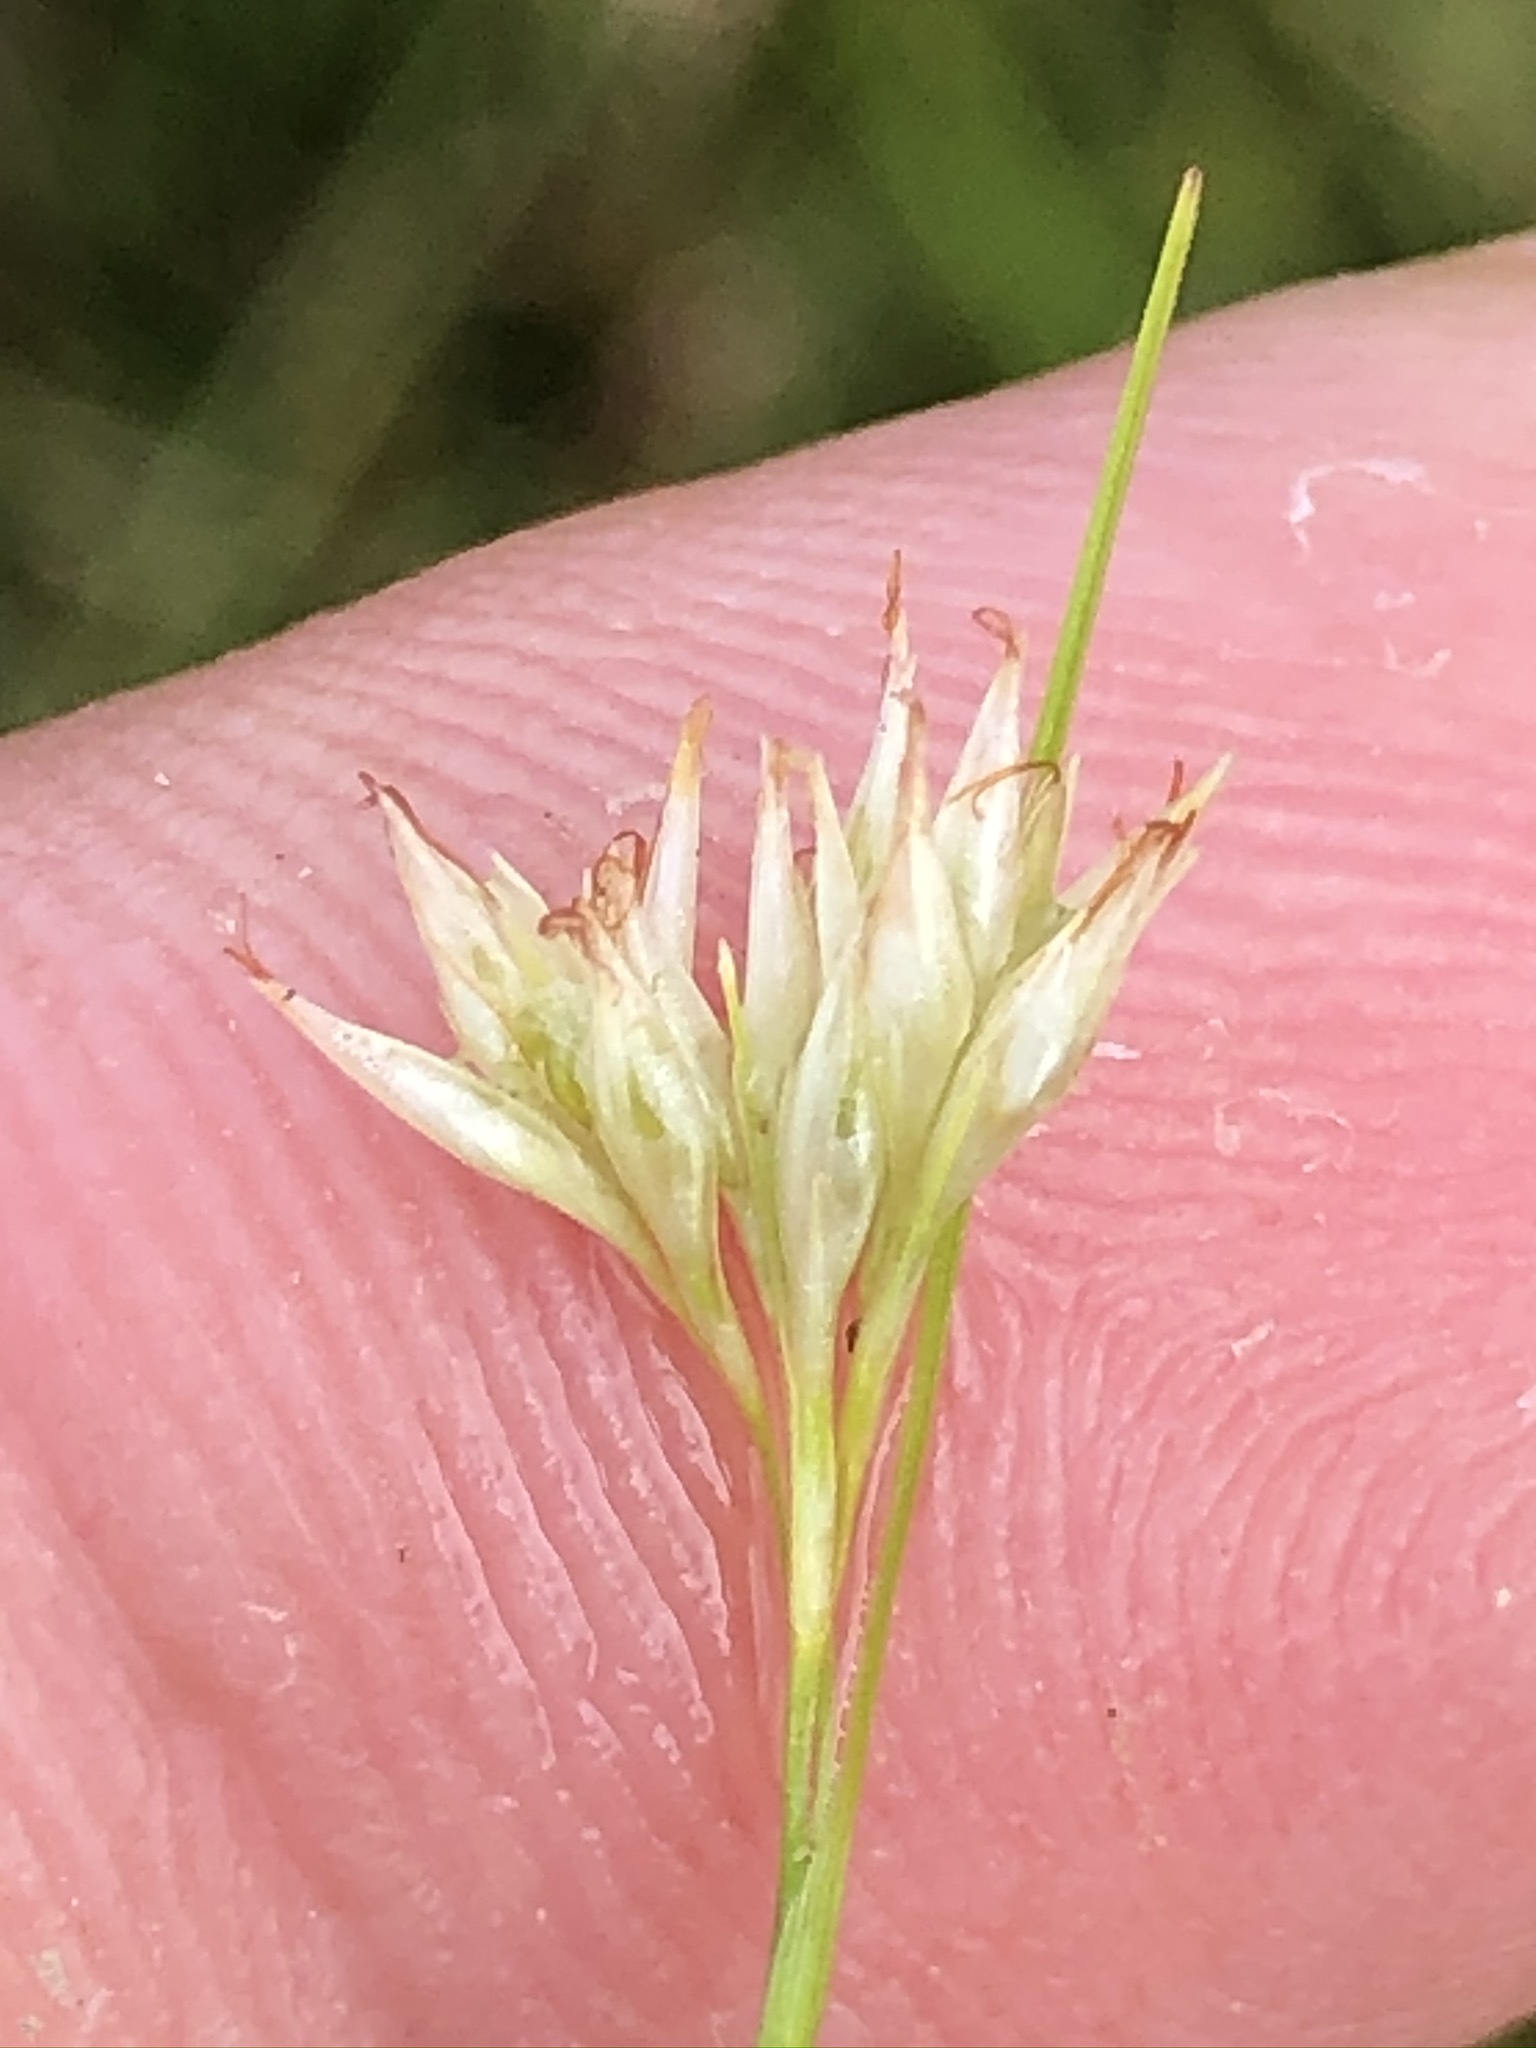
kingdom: Plantae
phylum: Tracheophyta
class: Liliopsida
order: Poales
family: Cyperaceae
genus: Rhynchospora
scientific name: Rhynchospora alba
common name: White beak-sedge
